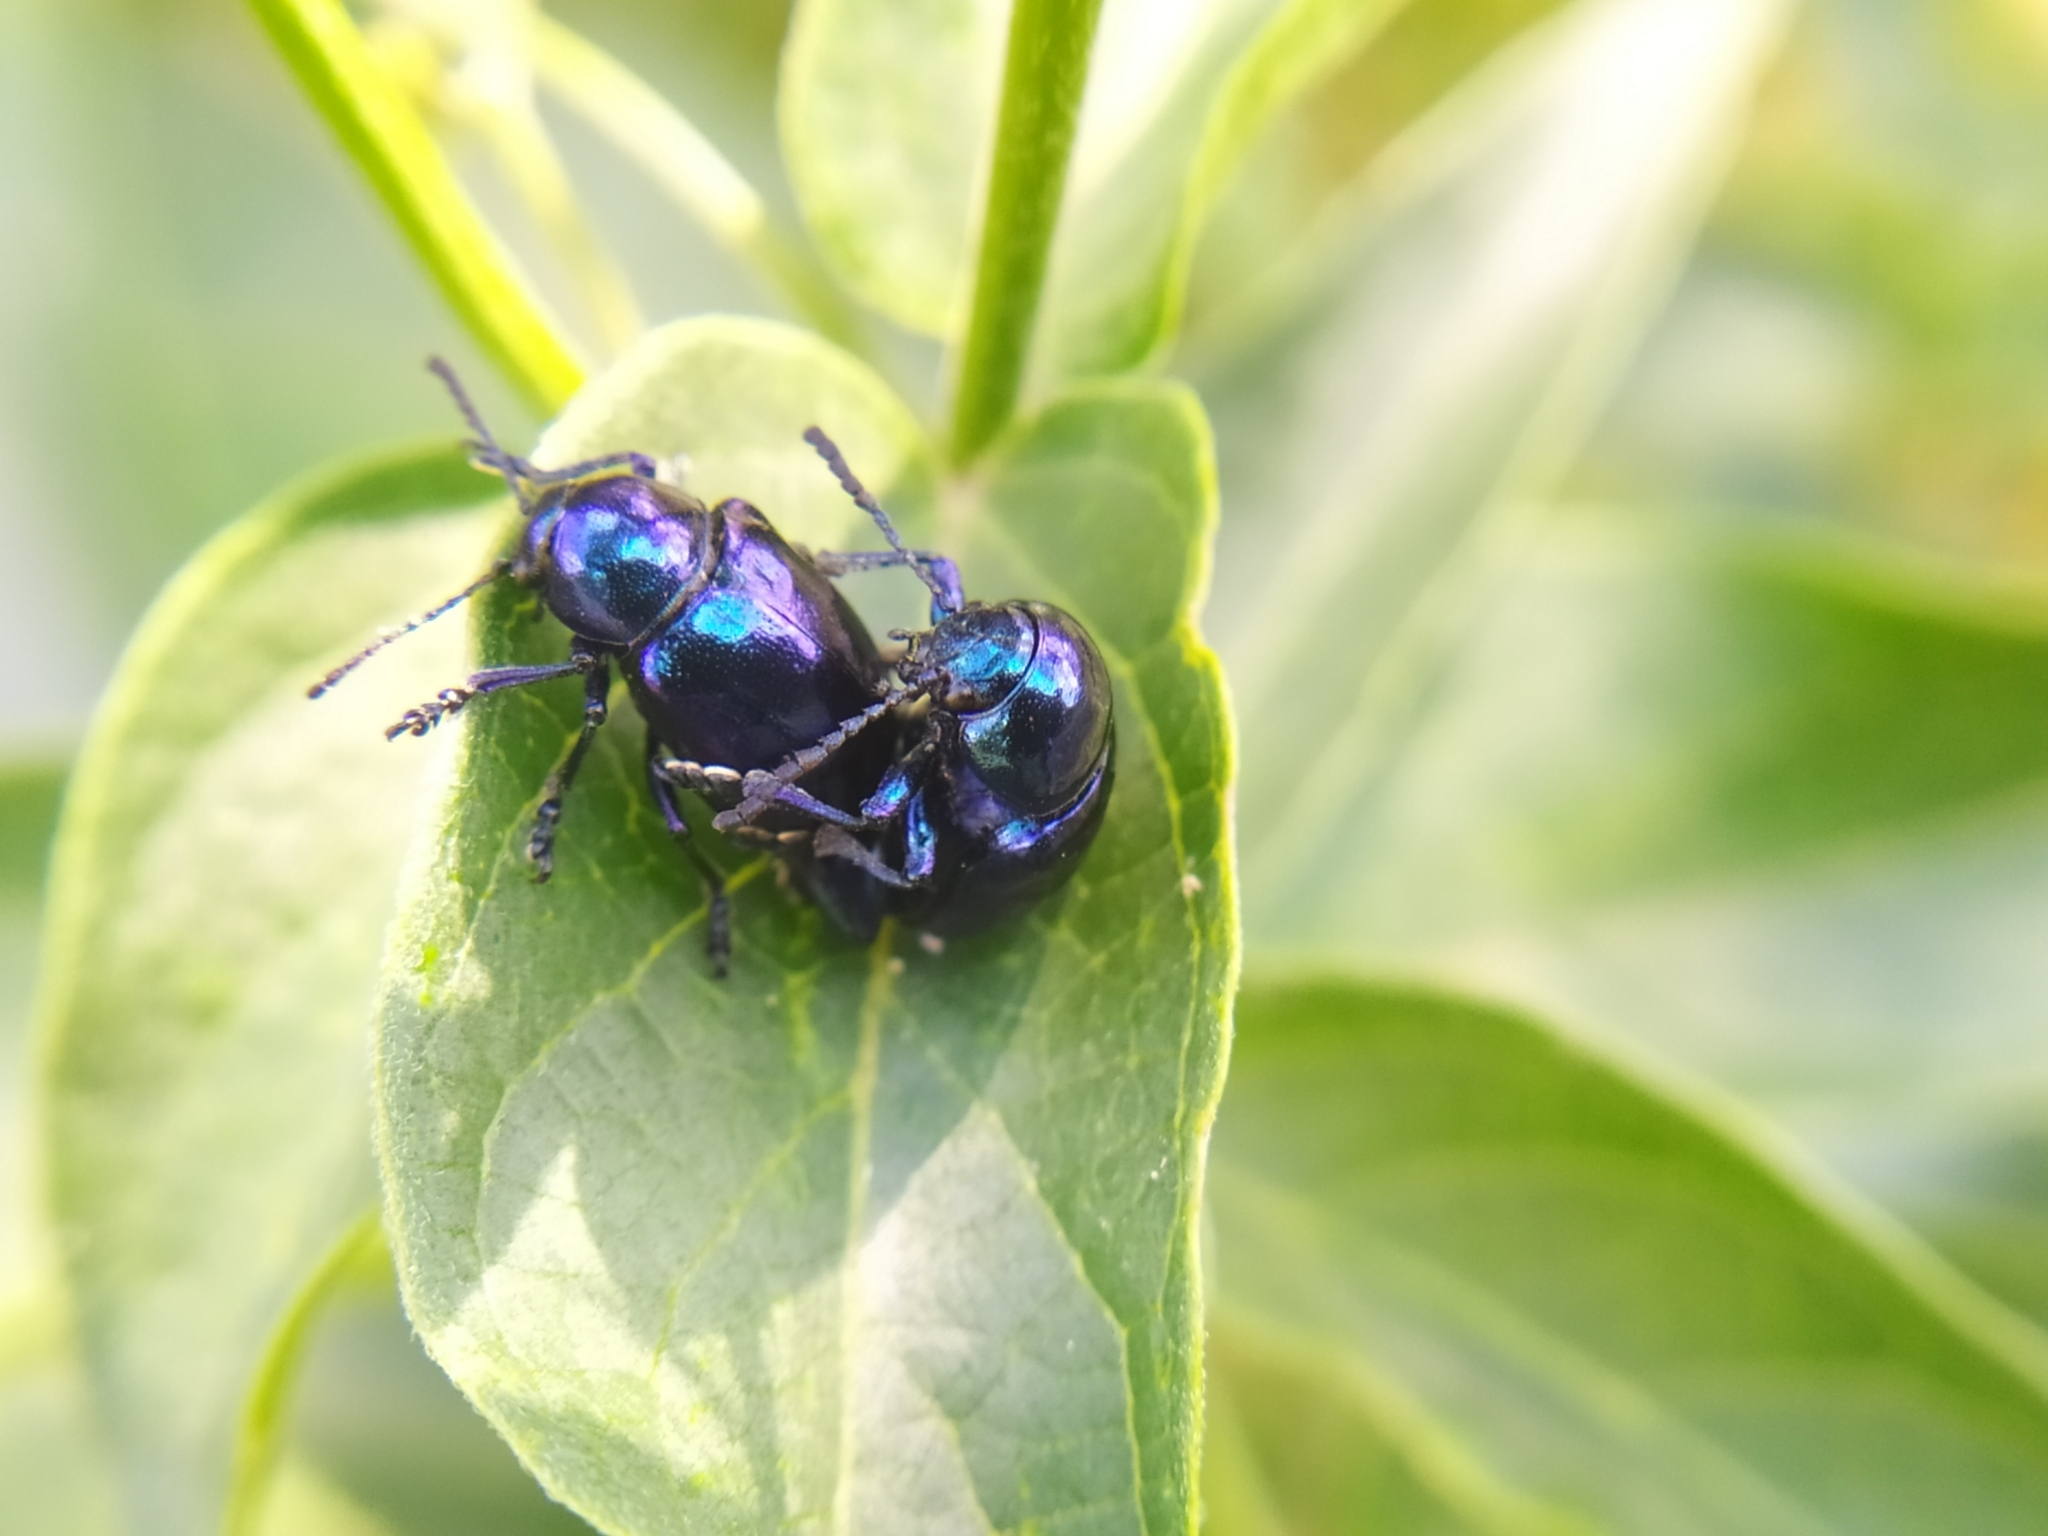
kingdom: Animalia
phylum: Arthropoda
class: Insecta
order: Coleoptera
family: Chrysomelidae
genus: Chrysochus
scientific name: Chrysochus asclepiadeus
